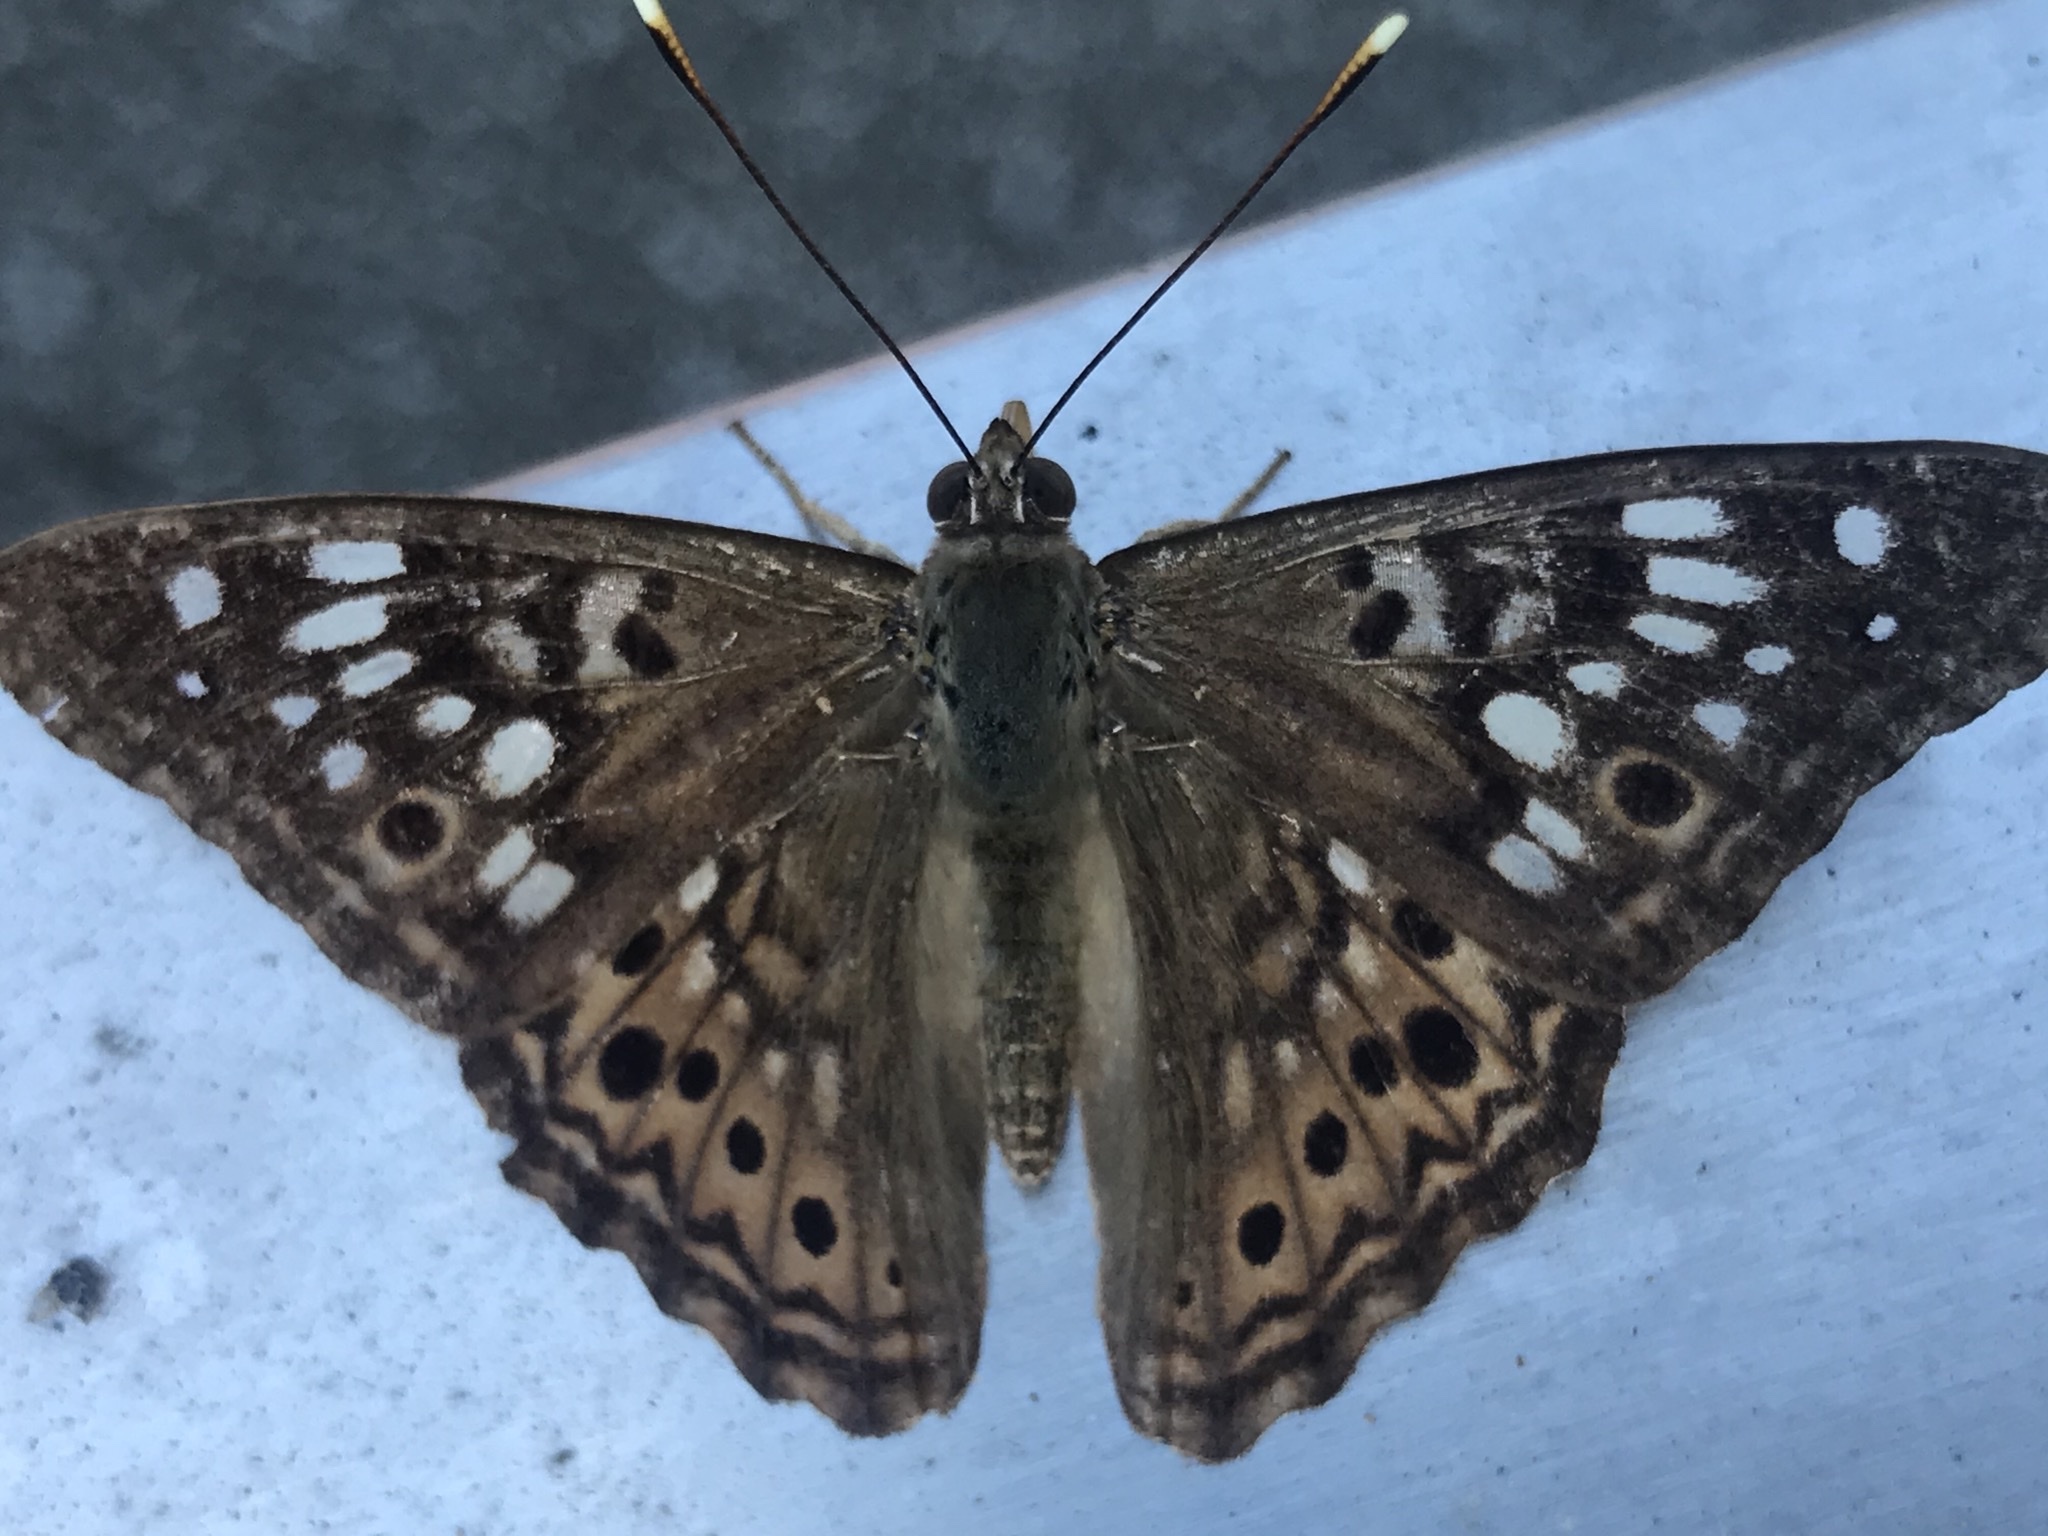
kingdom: Animalia
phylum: Arthropoda
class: Insecta
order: Lepidoptera
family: Nymphalidae
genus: Asterocampa
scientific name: Asterocampa celtis
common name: Hackberry emperor
